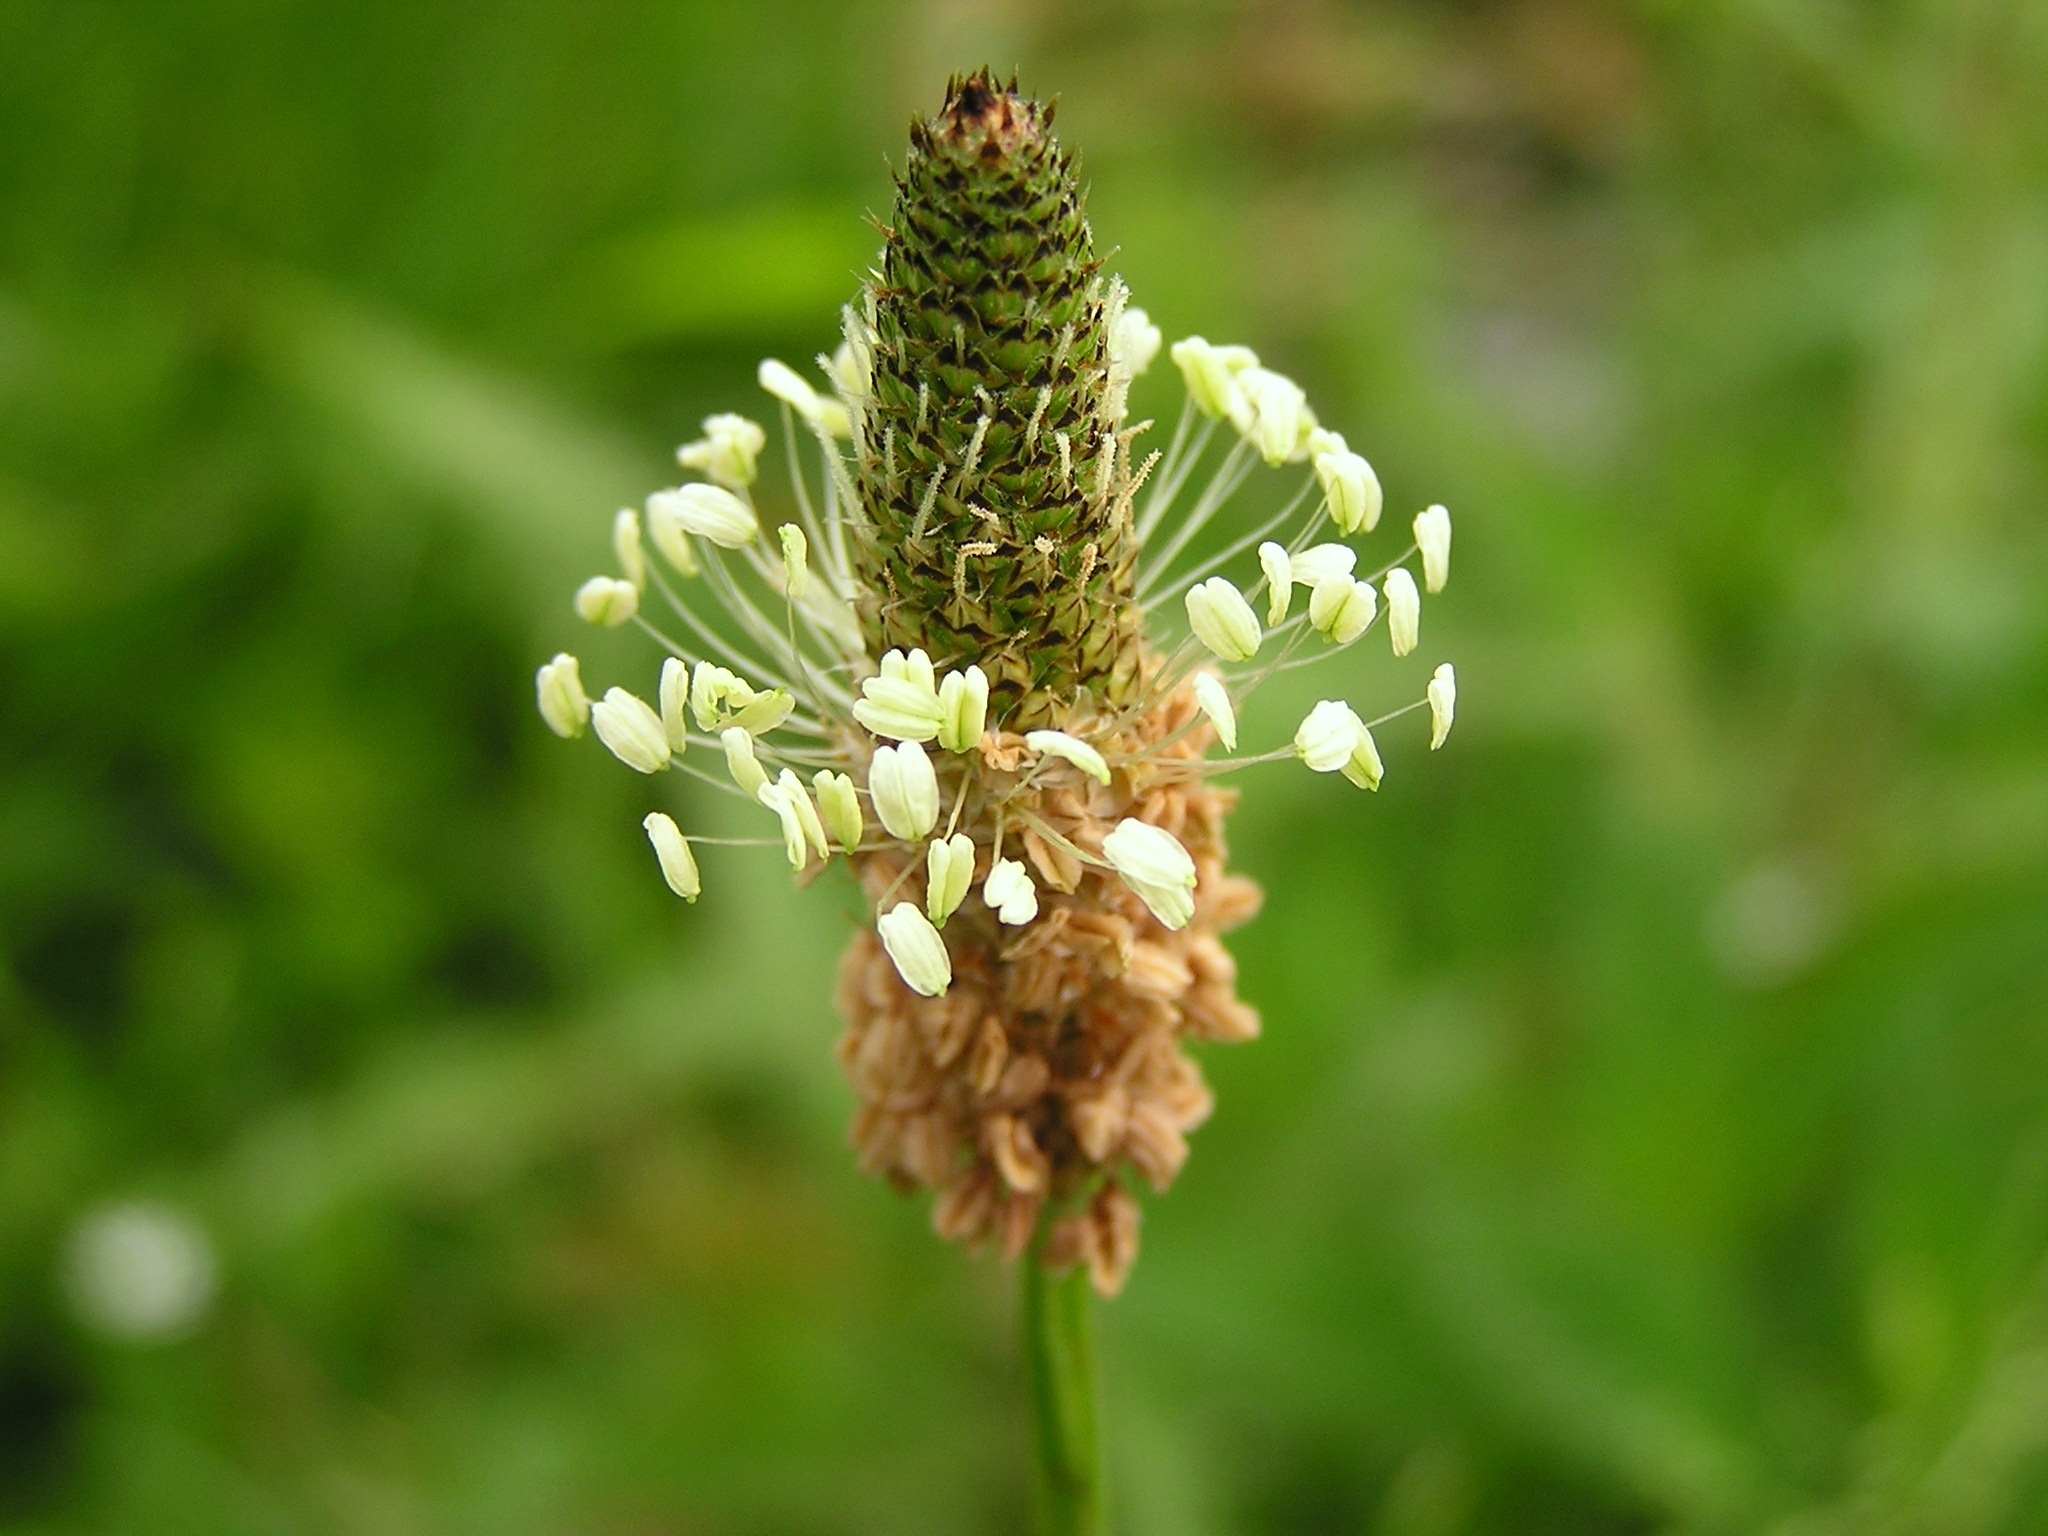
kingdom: Plantae
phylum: Tracheophyta
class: Magnoliopsida
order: Lamiales
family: Plantaginaceae
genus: Plantago
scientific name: Plantago lanceolata
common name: Ribwort plantain
